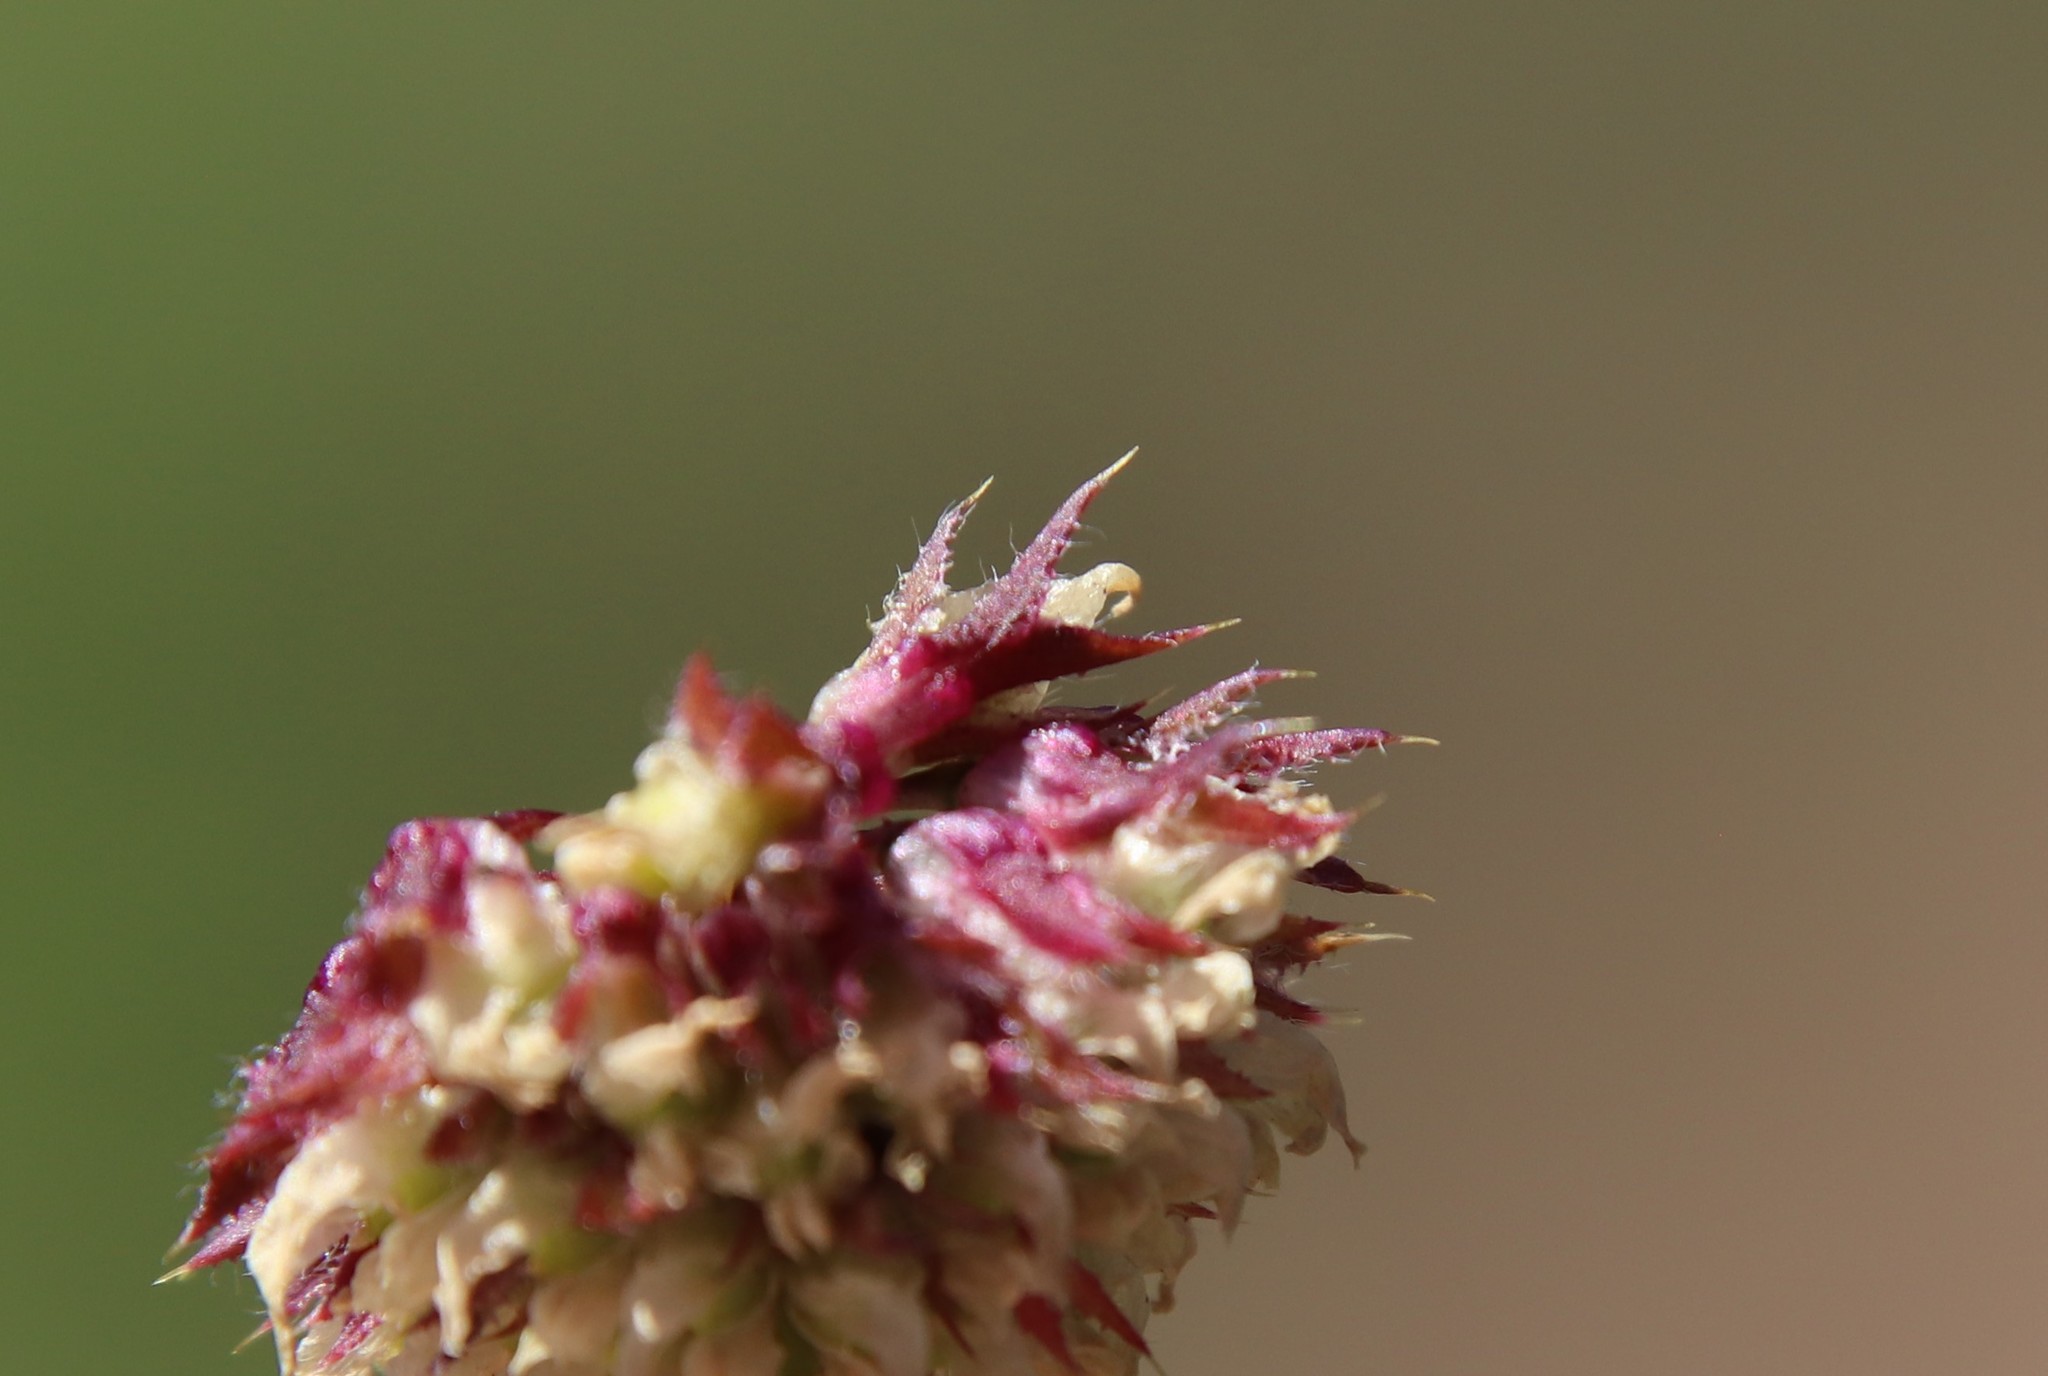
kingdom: Plantae
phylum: Tracheophyta
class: Magnoliopsida
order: Fabales
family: Fabaceae
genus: Trifolium
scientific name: Trifolium ciliolatum
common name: Foothill clover
